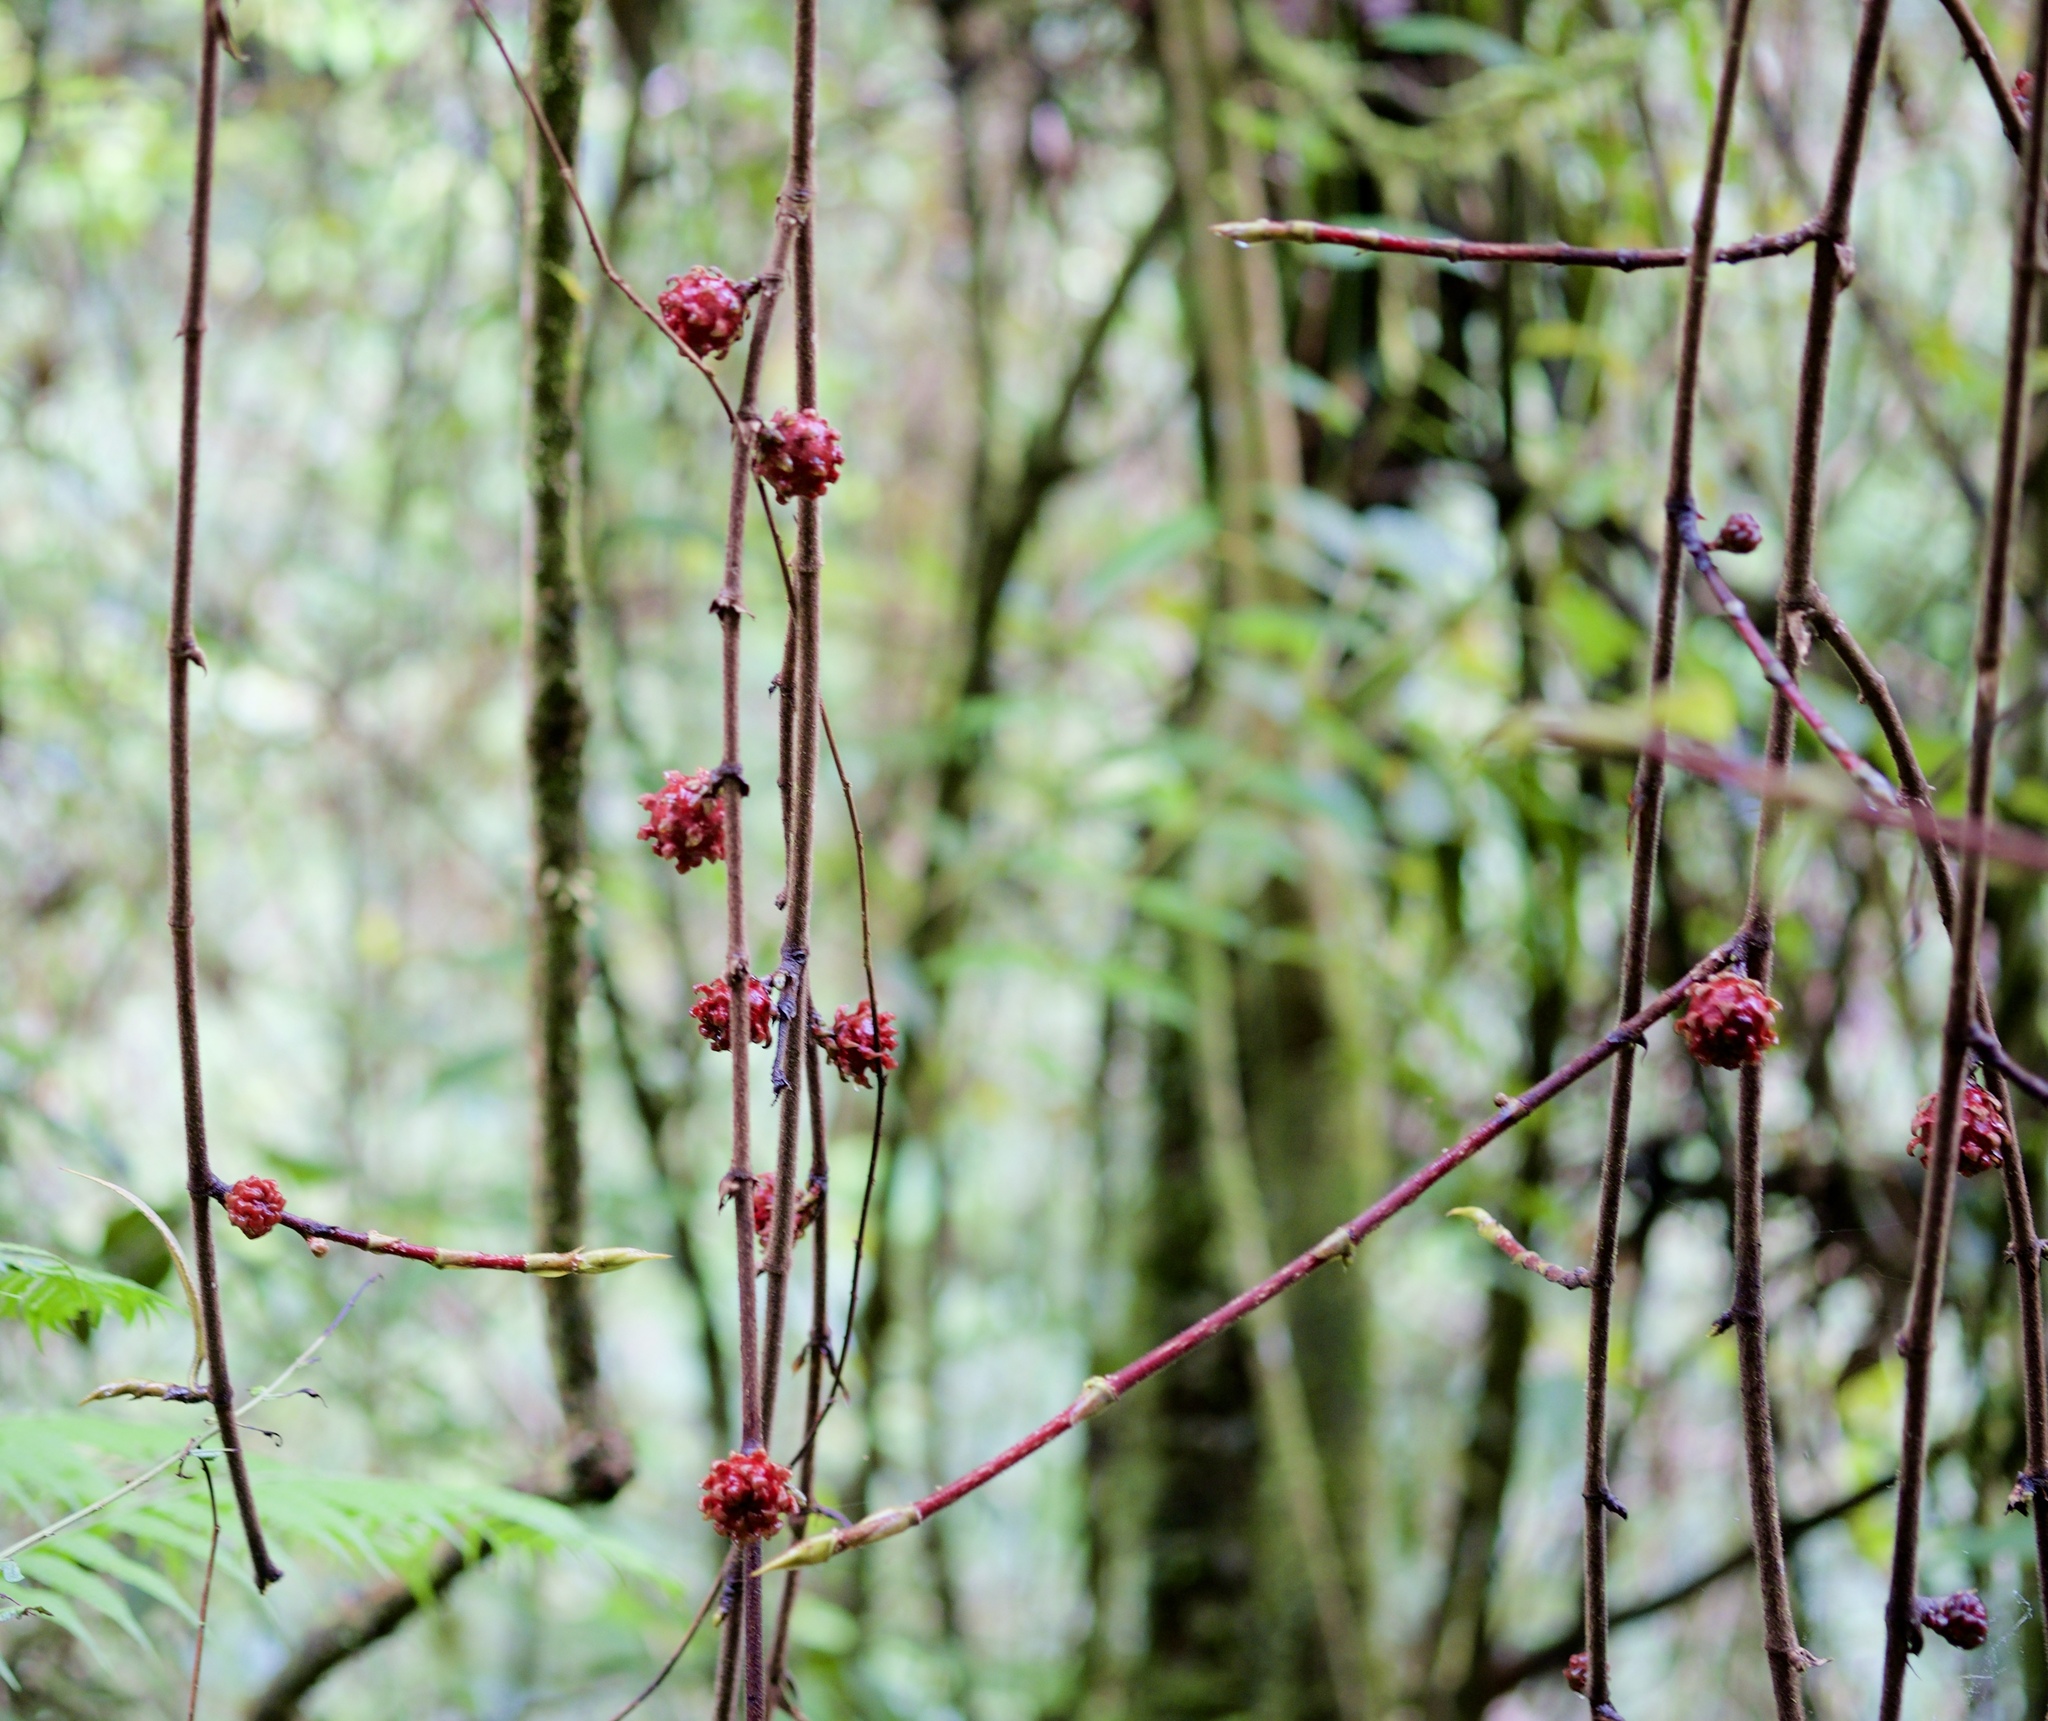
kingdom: Plantae
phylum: Tracheophyta
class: Magnoliopsida
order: Rosales
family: Moraceae
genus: Ficus
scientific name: Ficus malayana
